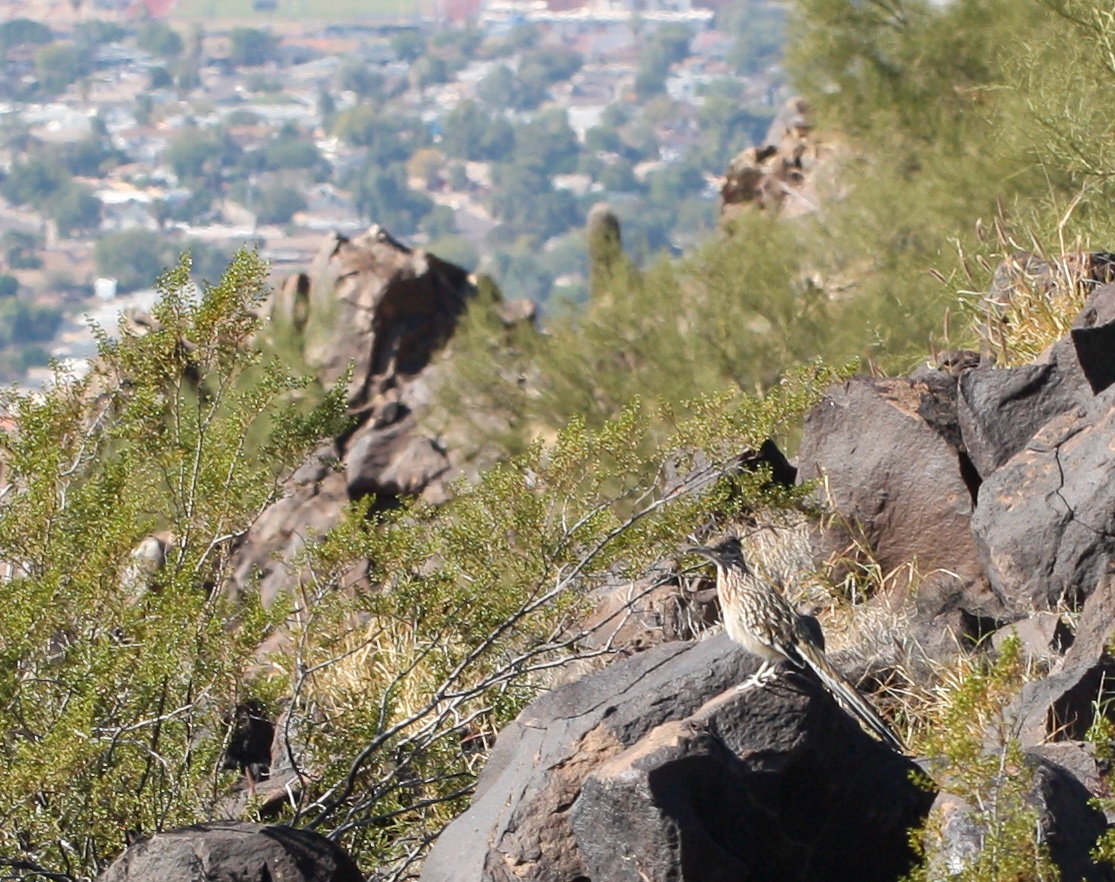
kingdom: Animalia
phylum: Chordata
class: Aves
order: Cuculiformes
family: Cuculidae
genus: Geococcyx
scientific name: Geococcyx californianus
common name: Greater roadrunner
